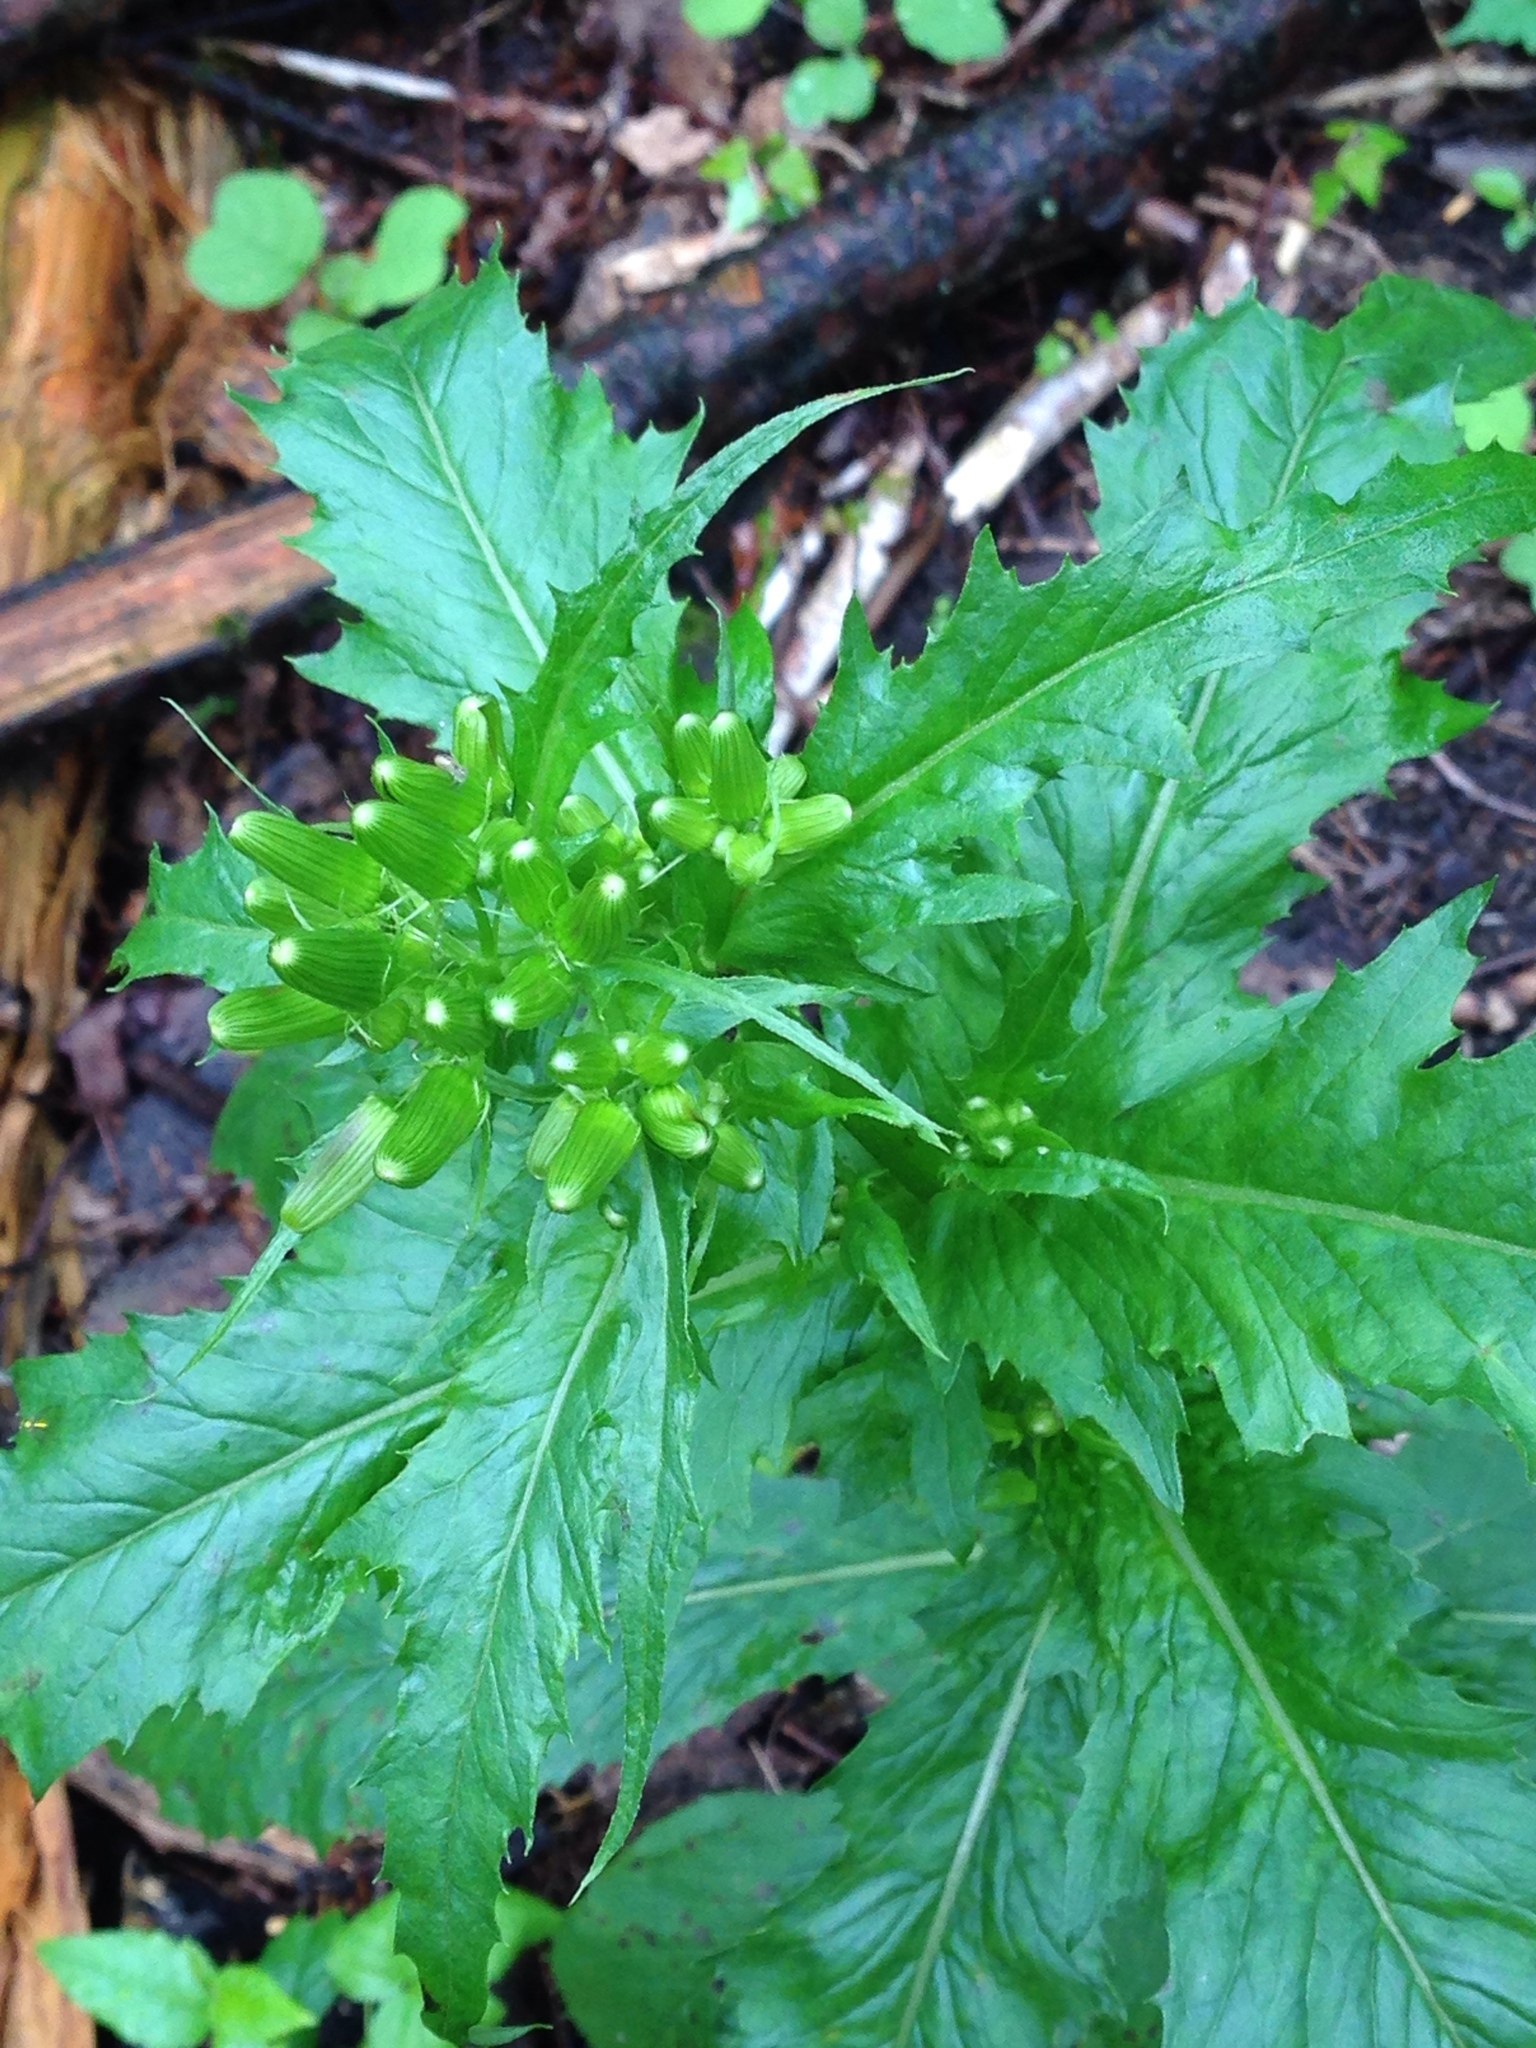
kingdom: Plantae
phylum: Tracheophyta
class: Magnoliopsida
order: Asterales
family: Asteraceae
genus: Erechtites
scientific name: Erechtites hieraciifolius
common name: American burnweed
